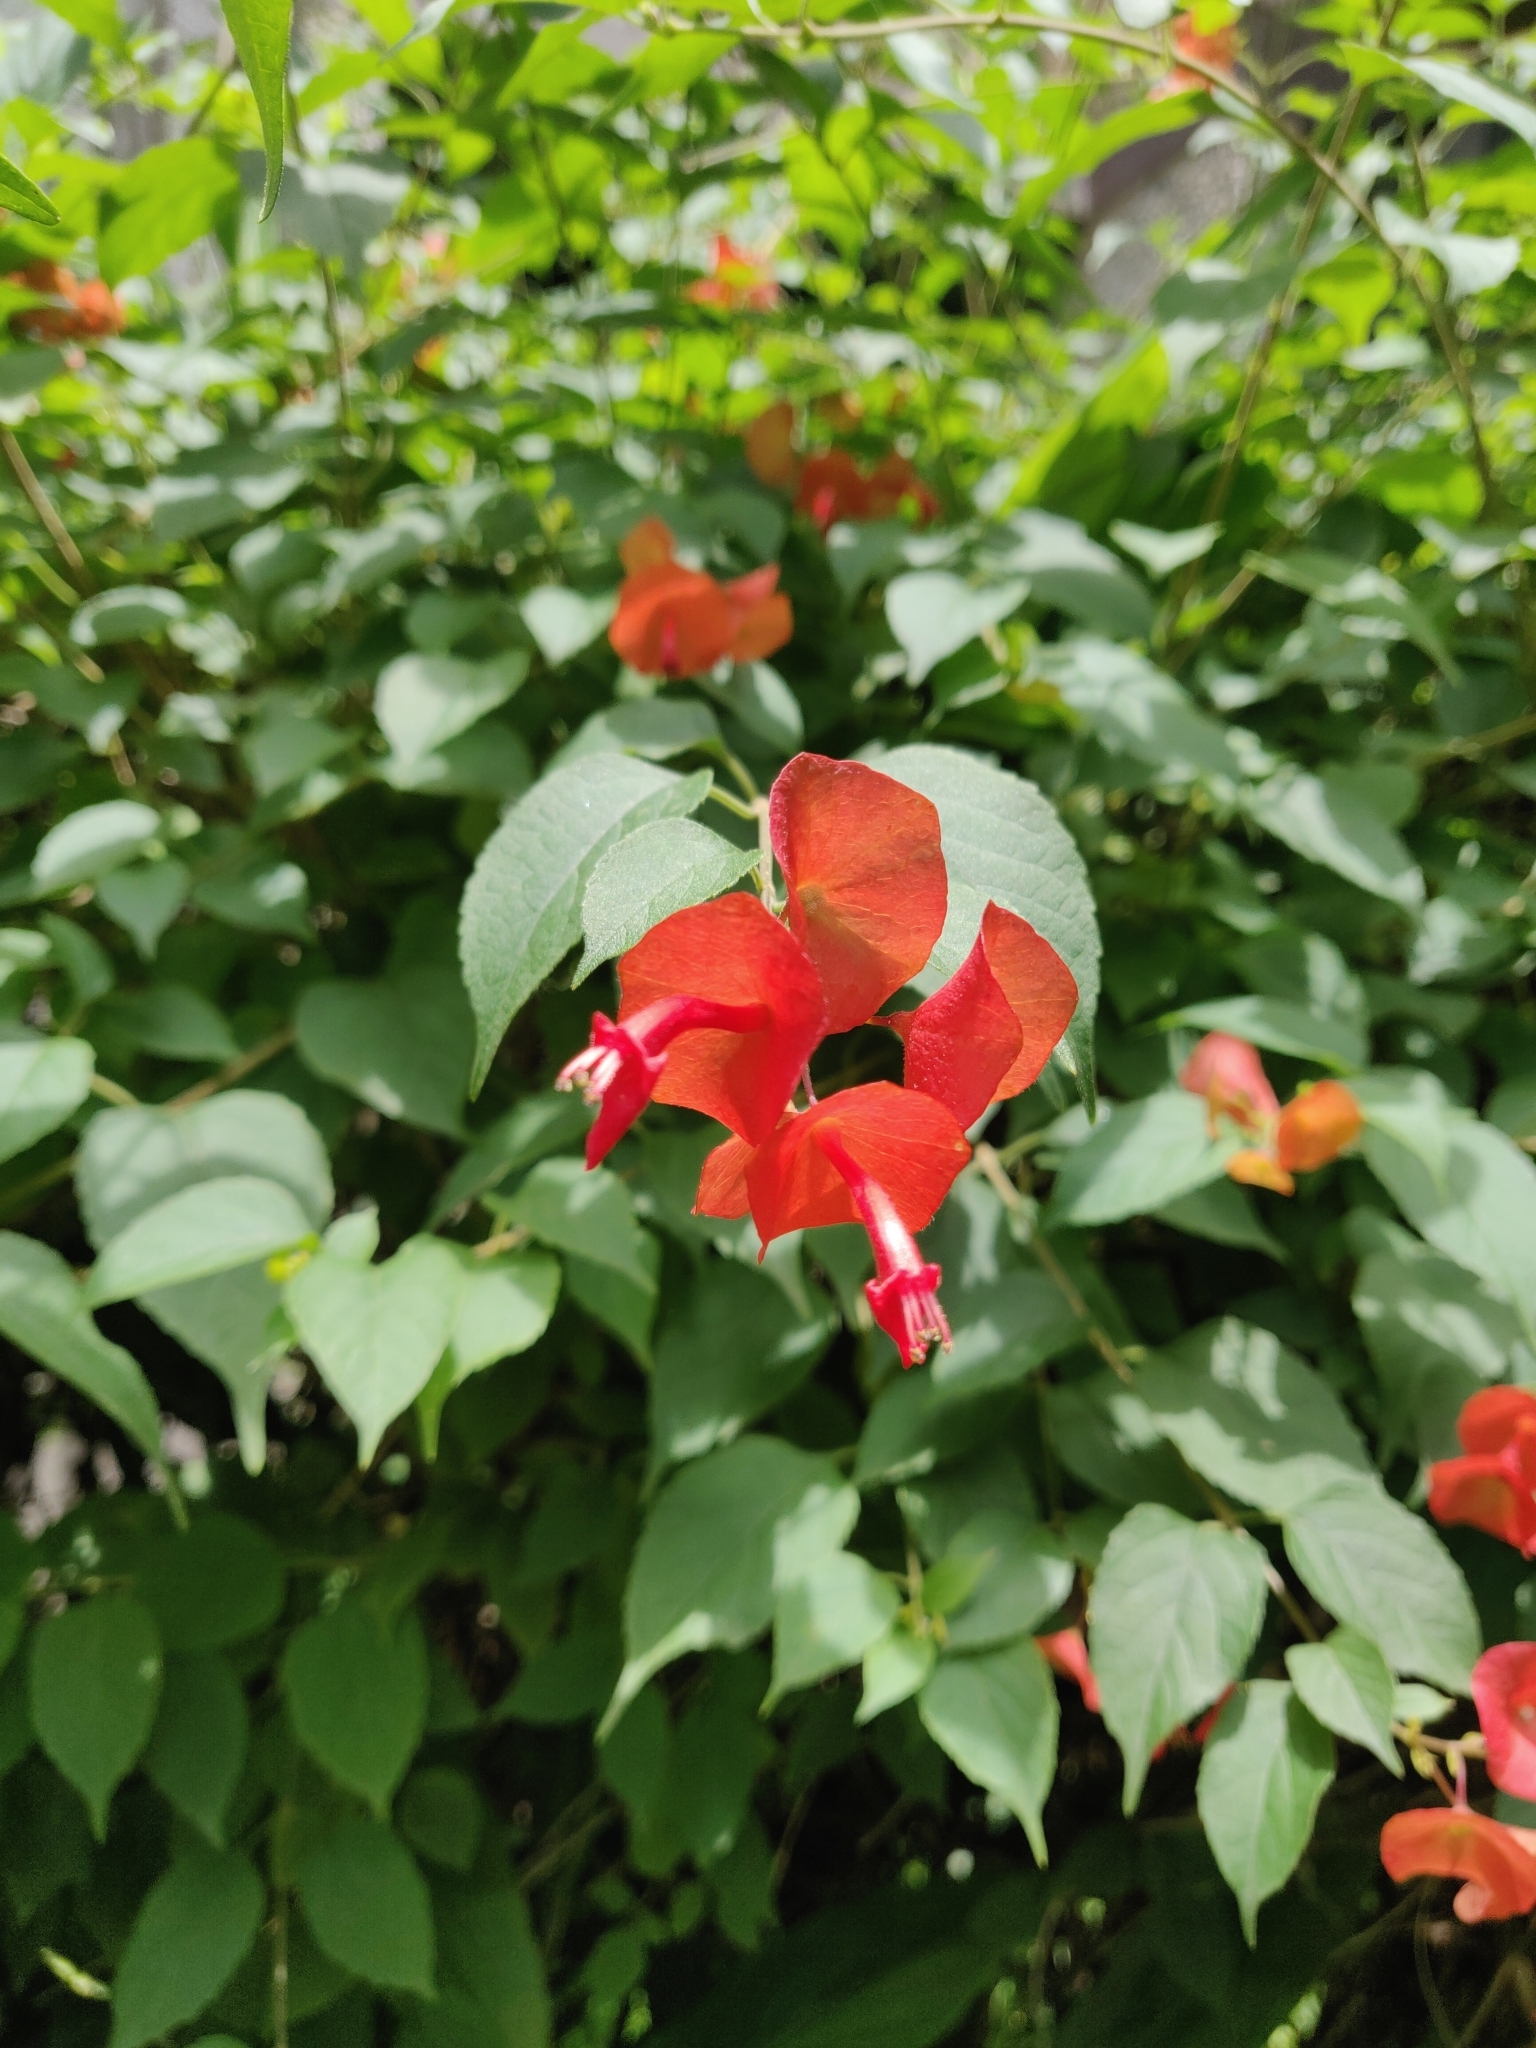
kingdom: Plantae
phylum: Tracheophyta
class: Magnoliopsida
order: Lamiales
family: Lamiaceae
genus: Holmskioldia
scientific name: Holmskioldia sanguinea
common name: Chinese hatplant
